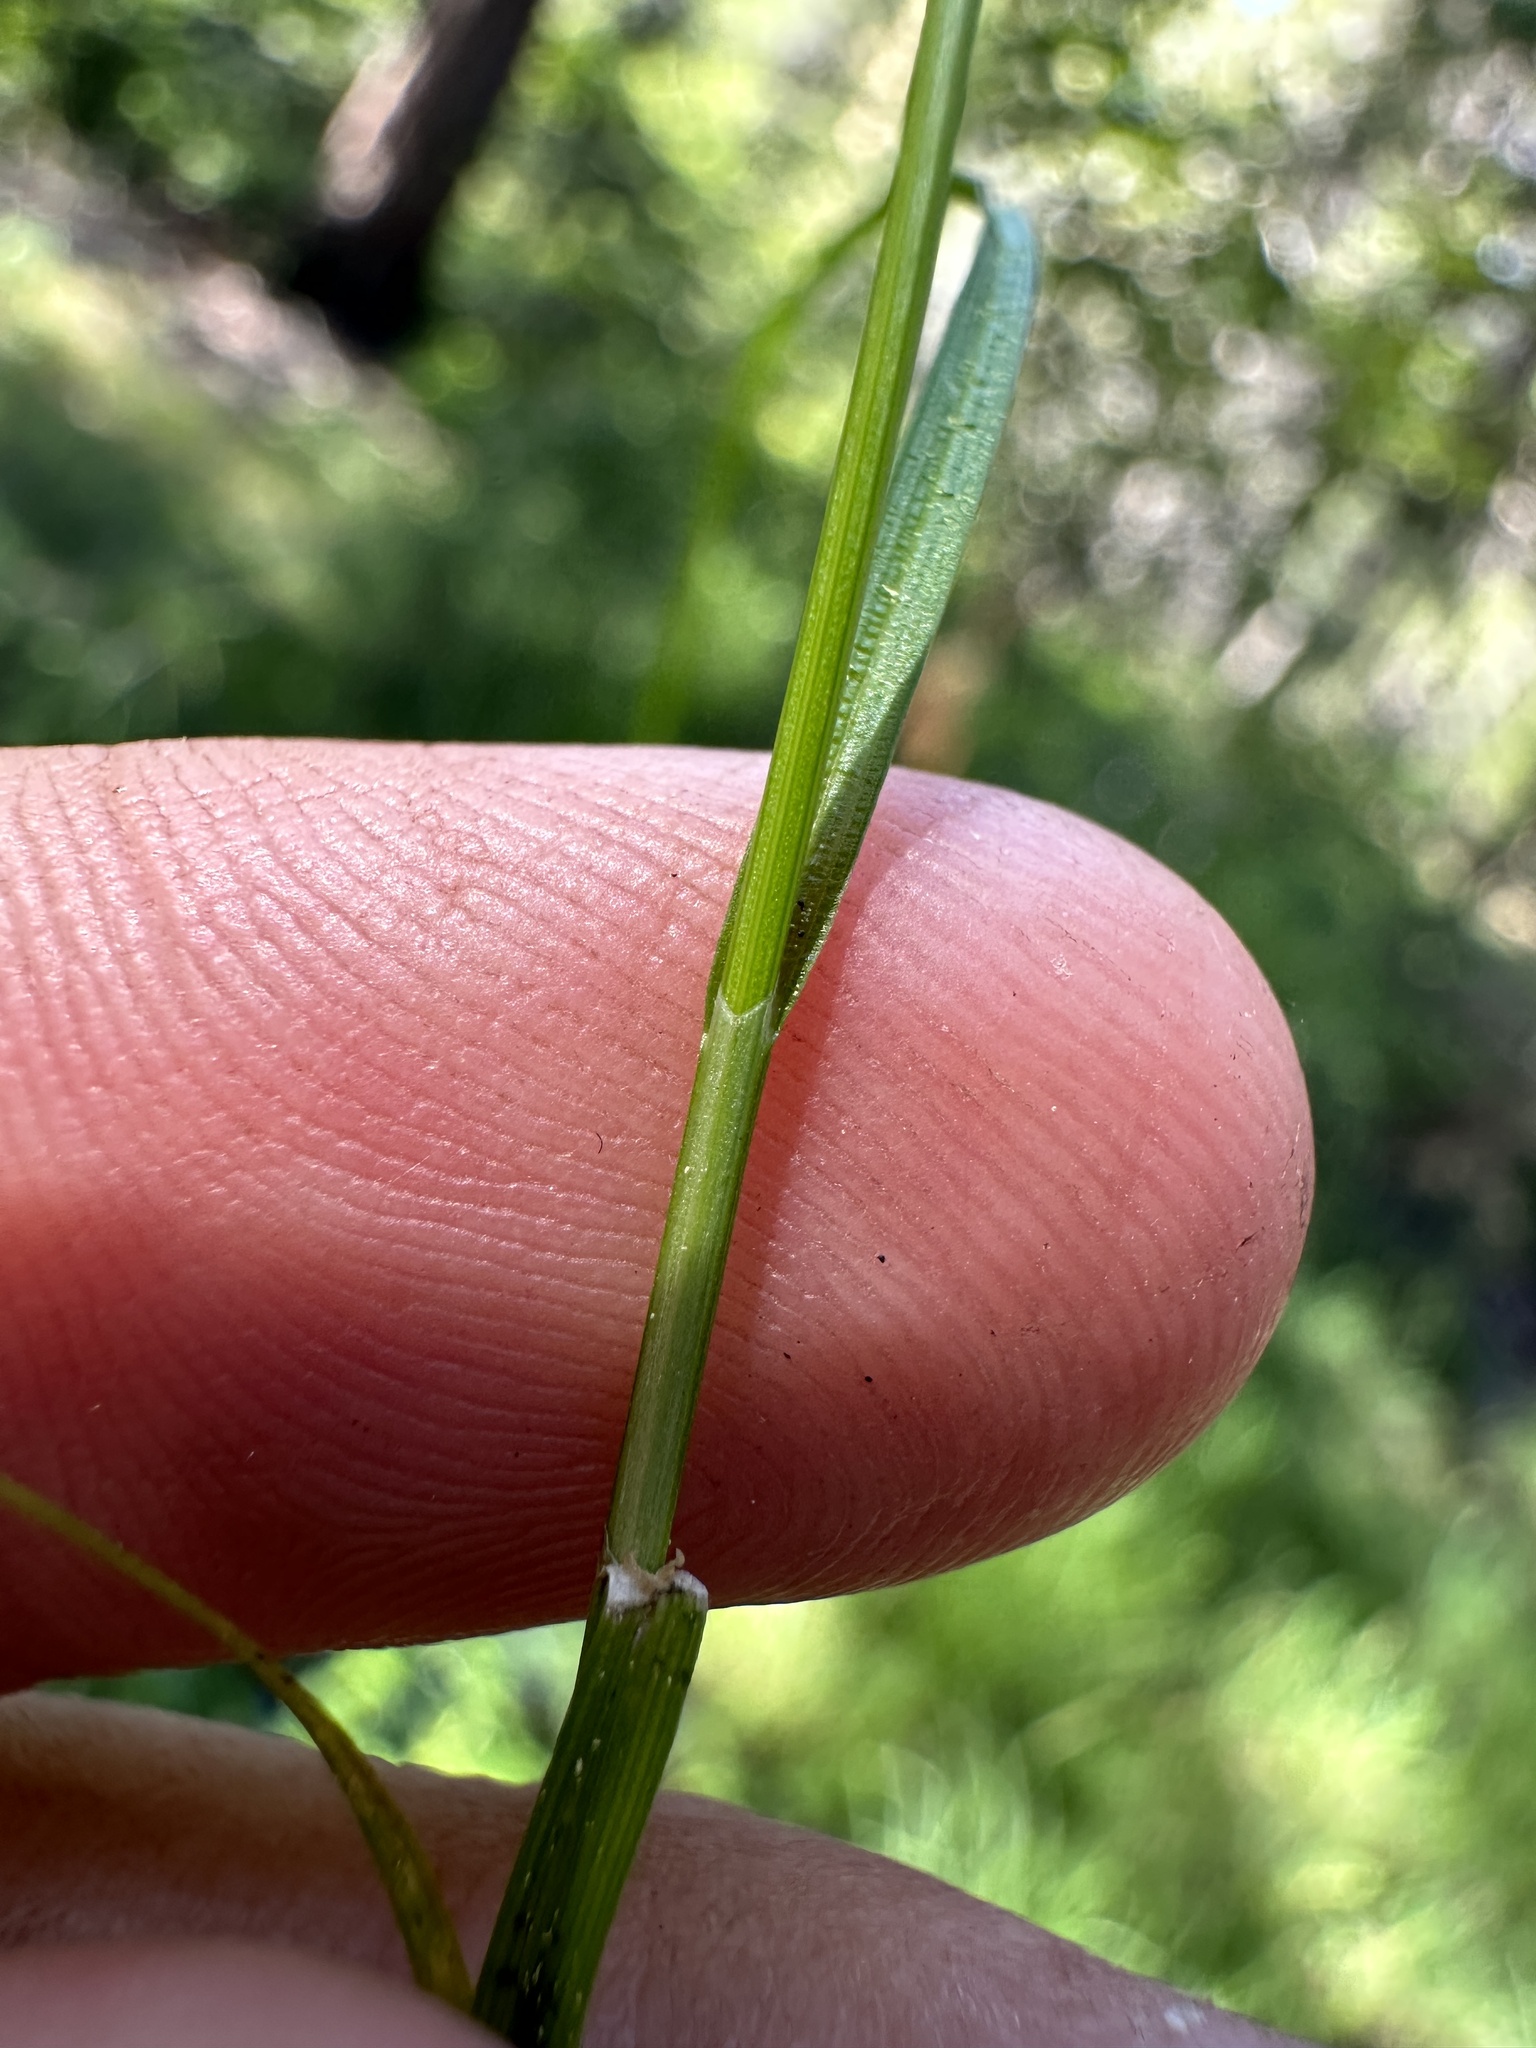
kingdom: Plantae
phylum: Tracheophyta
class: Liliopsida
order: Poales
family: Cyperaceae
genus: Carex
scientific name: Carex disperma
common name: Short-leaved sedge
